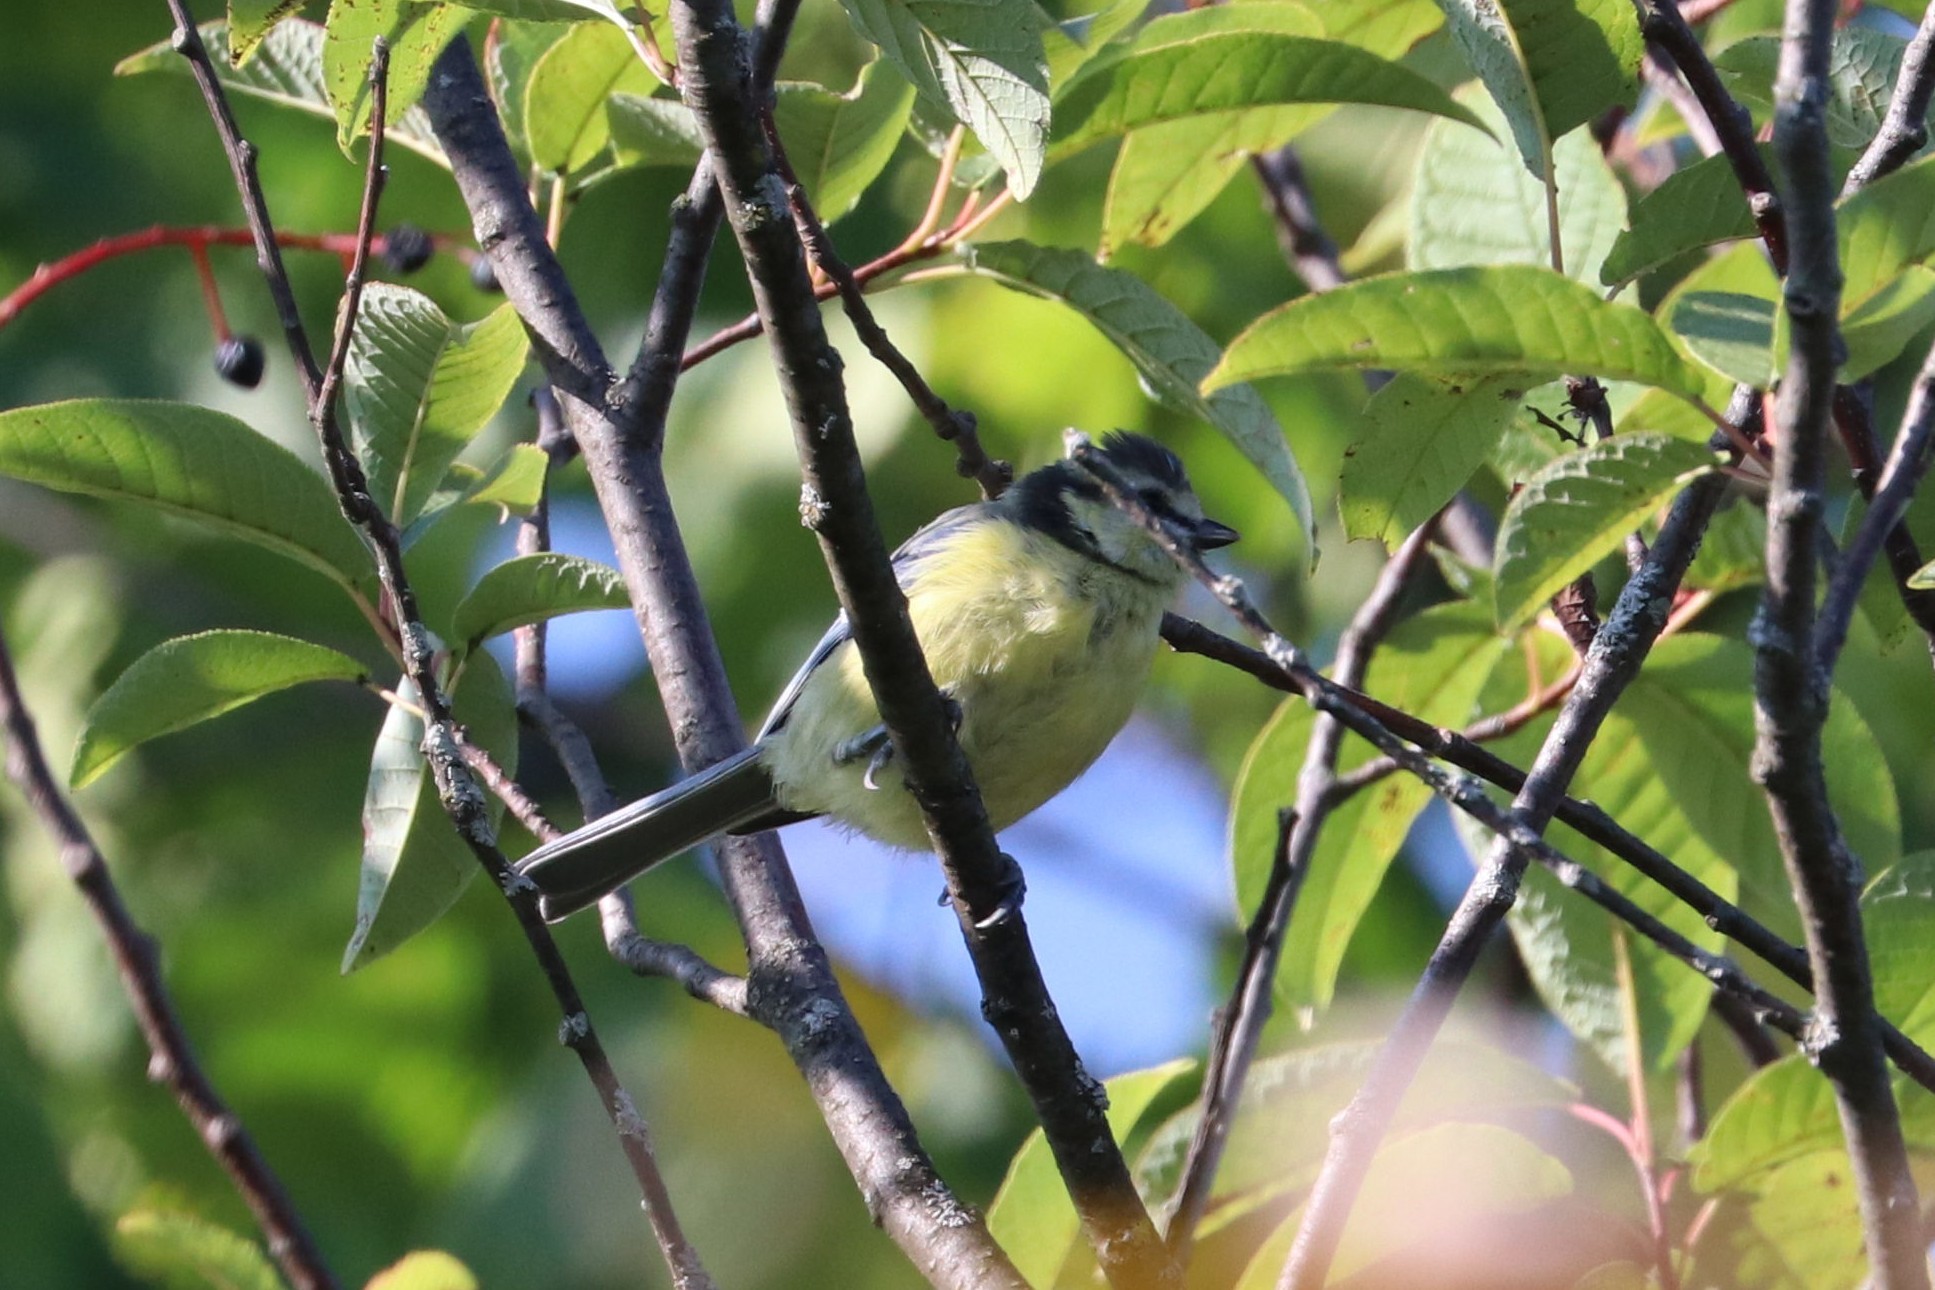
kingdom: Animalia
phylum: Chordata
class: Aves
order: Passeriformes
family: Paridae
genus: Cyanistes
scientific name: Cyanistes caeruleus
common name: Eurasian blue tit
